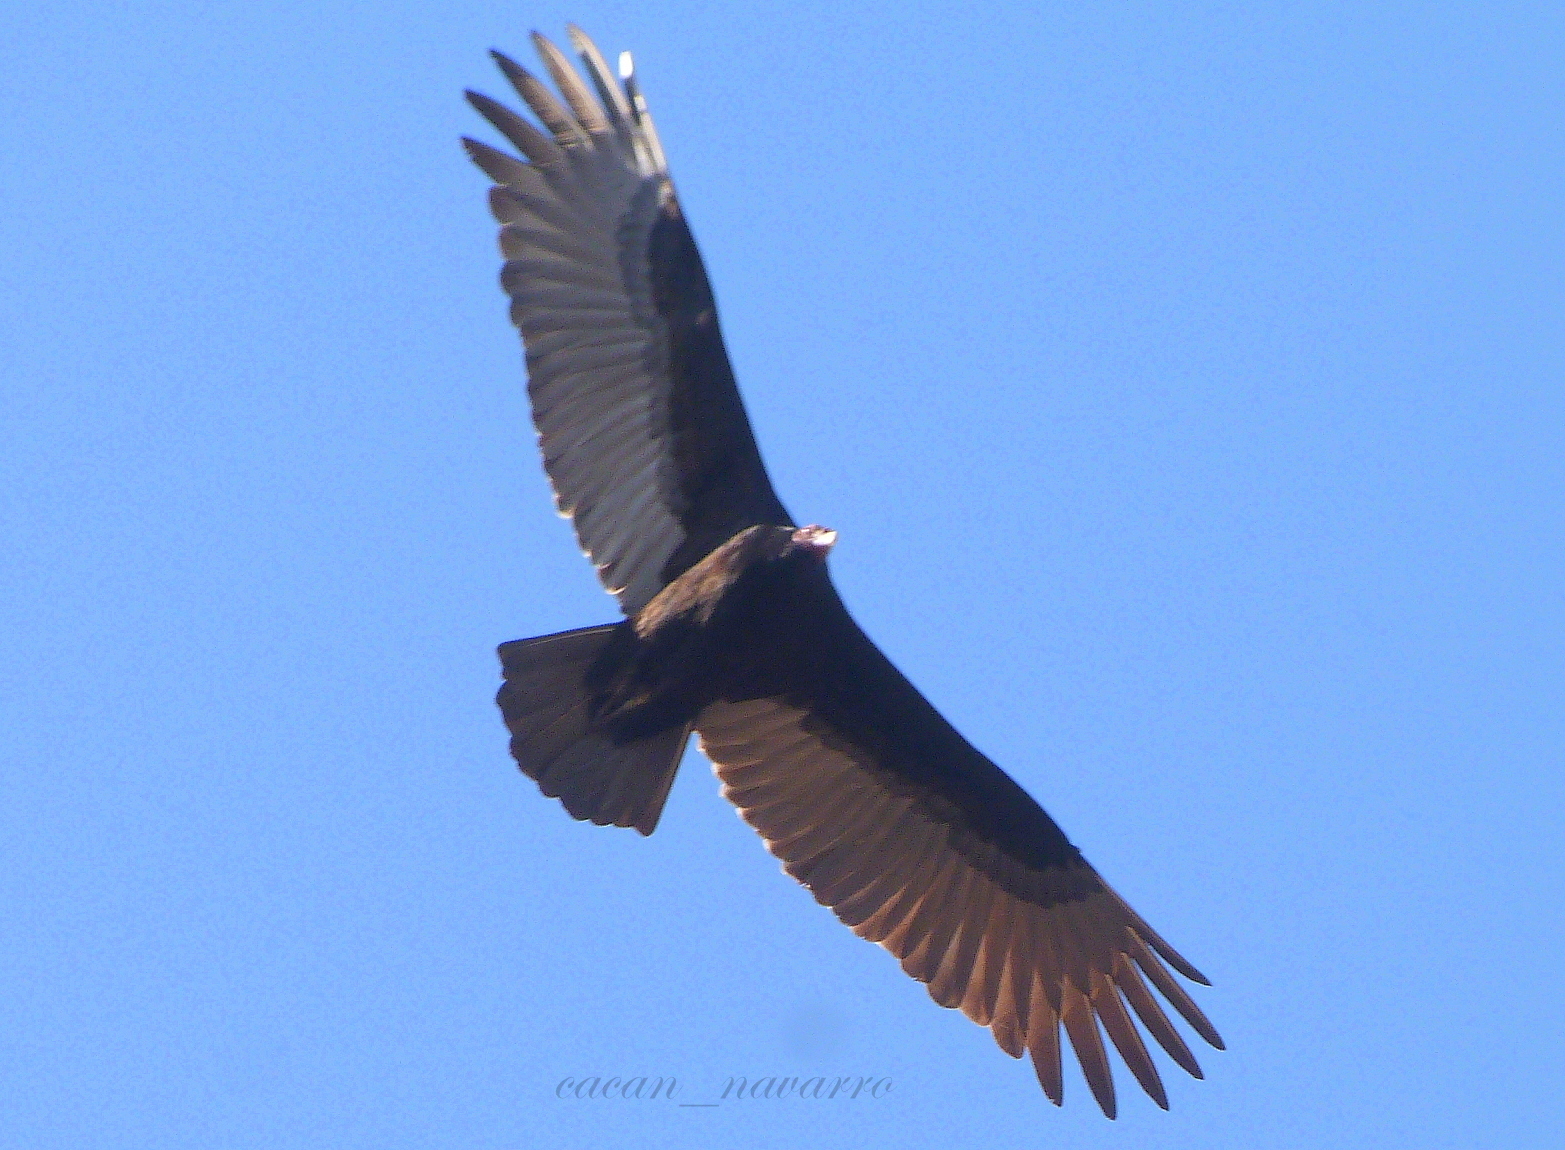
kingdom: Animalia
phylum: Chordata
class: Aves
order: Accipitriformes
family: Cathartidae
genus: Cathartes
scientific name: Cathartes aura
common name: Turkey vulture
